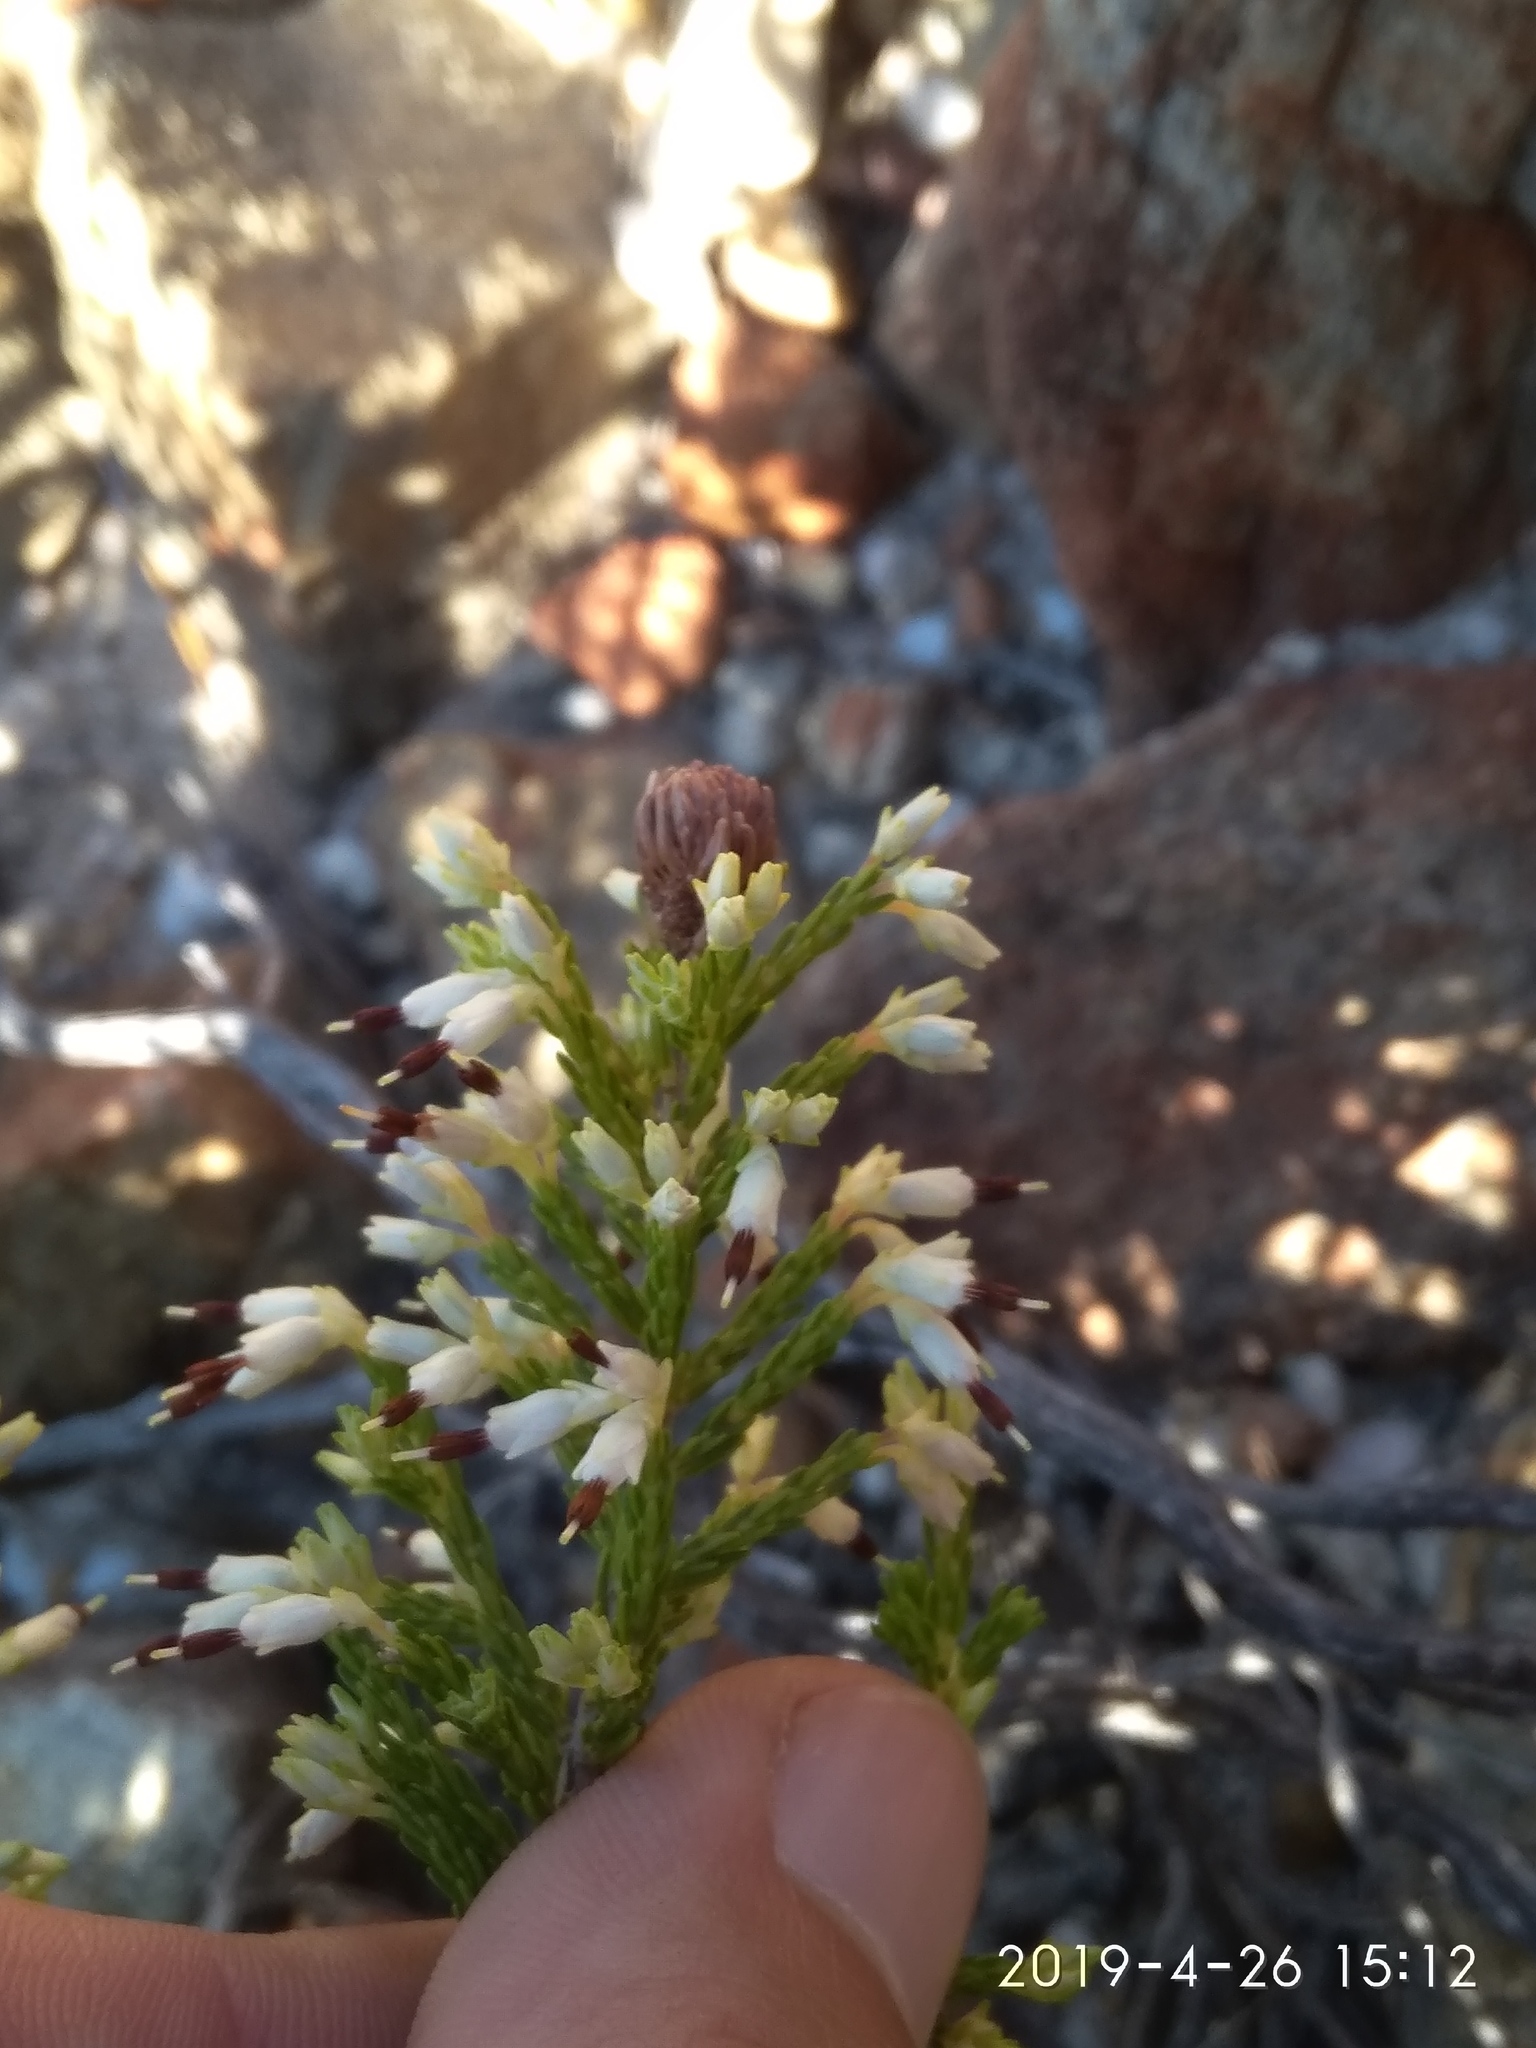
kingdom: Plantae
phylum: Tracheophyta
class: Magnoliopsida
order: Ericales
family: Ericaceae
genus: Erica
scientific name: Erica imbricata
